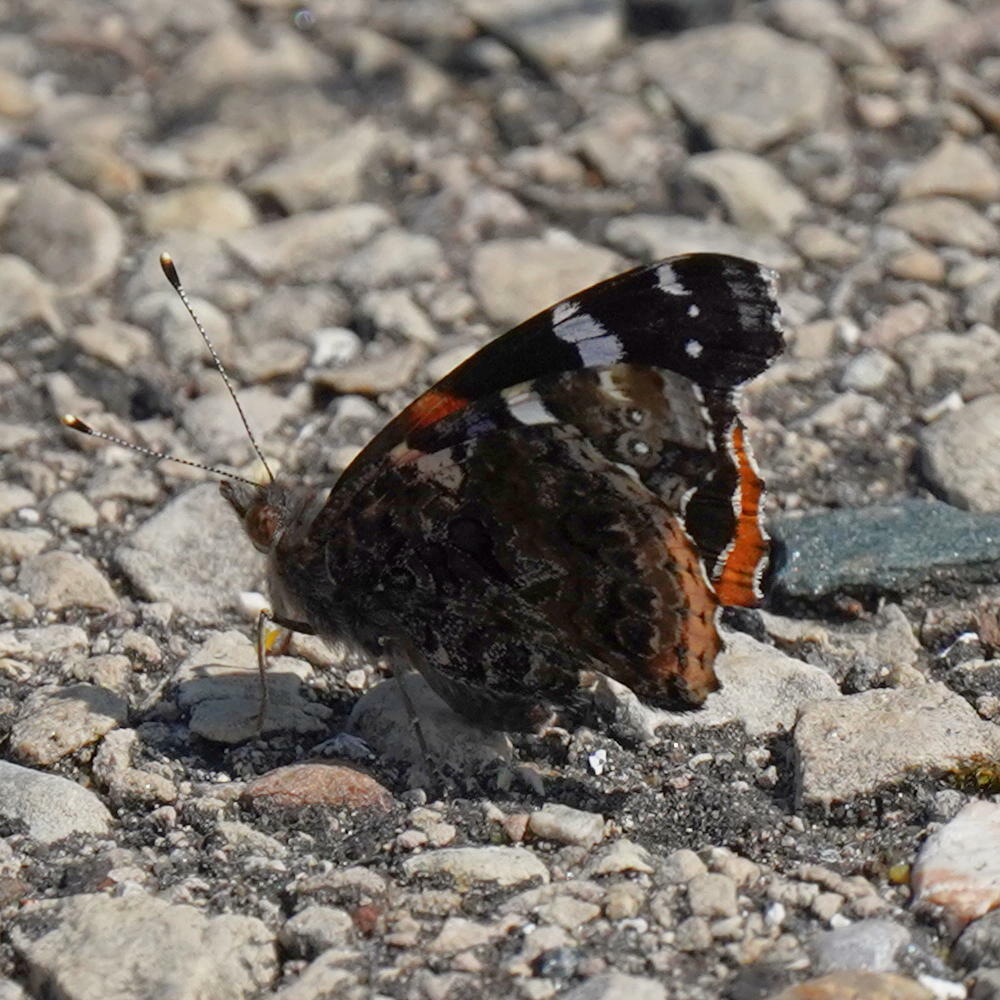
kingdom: Animalia
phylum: Arthropoda
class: Insecta
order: Lepidoptera
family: Nymphalidae
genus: Vanessa
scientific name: Vanessa atalanta
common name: Red admiral
